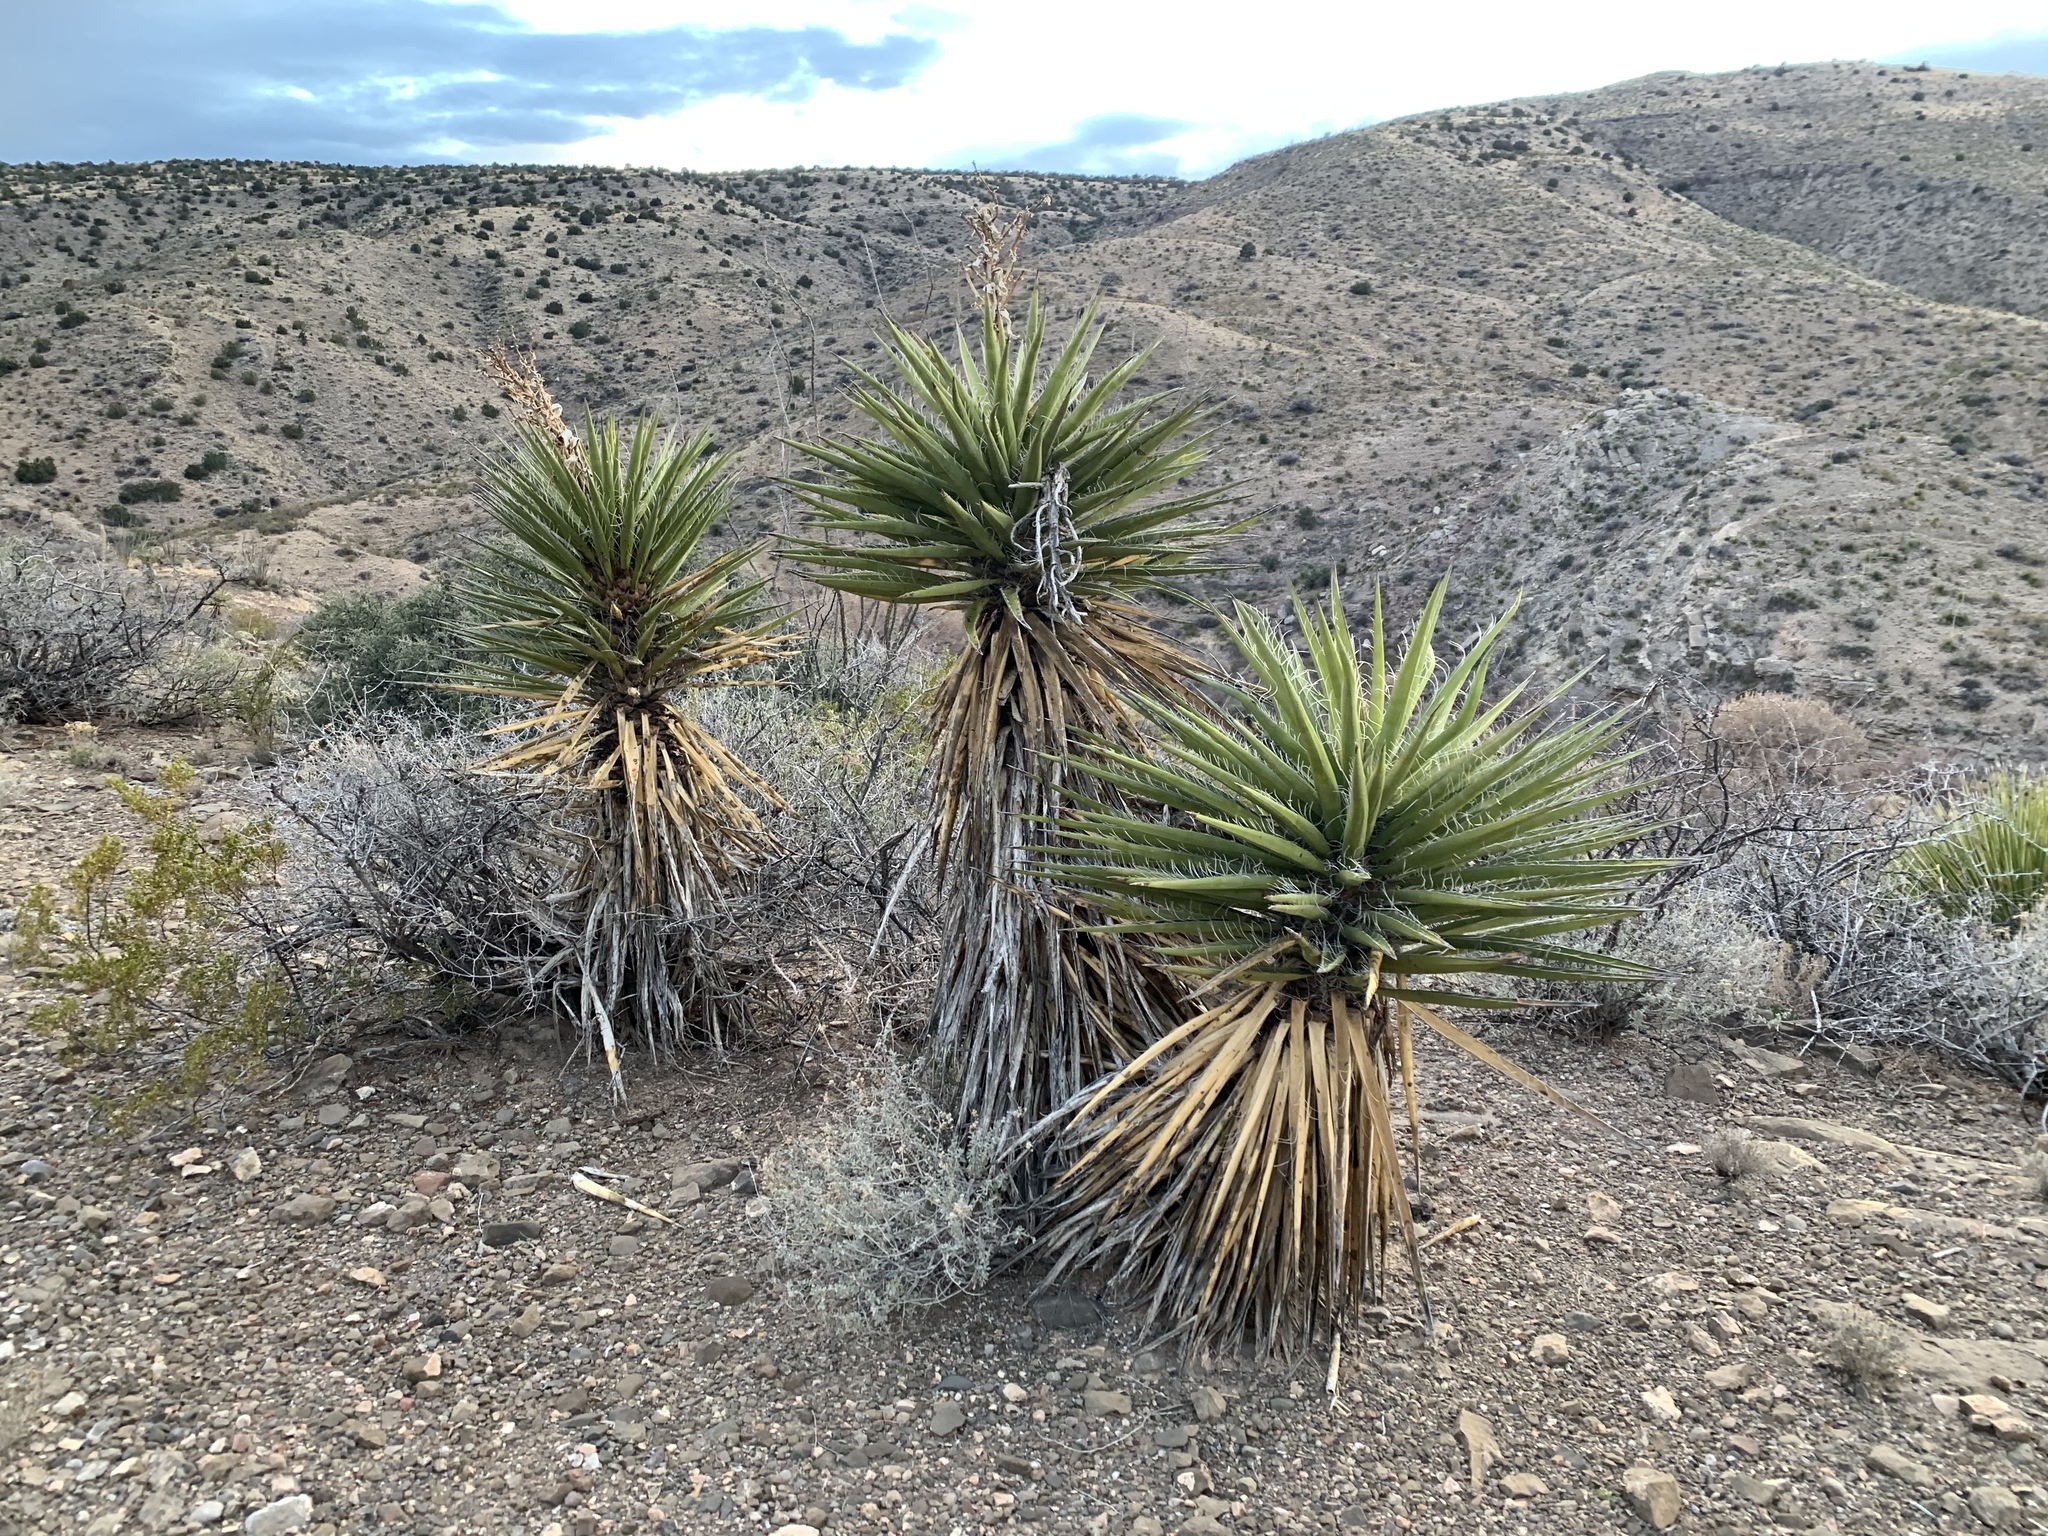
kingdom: Plantae
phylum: Tracheophyta
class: Liliopsida
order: Asparagales
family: Asparagaceae
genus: Yucca
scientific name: Yucca treculiana
